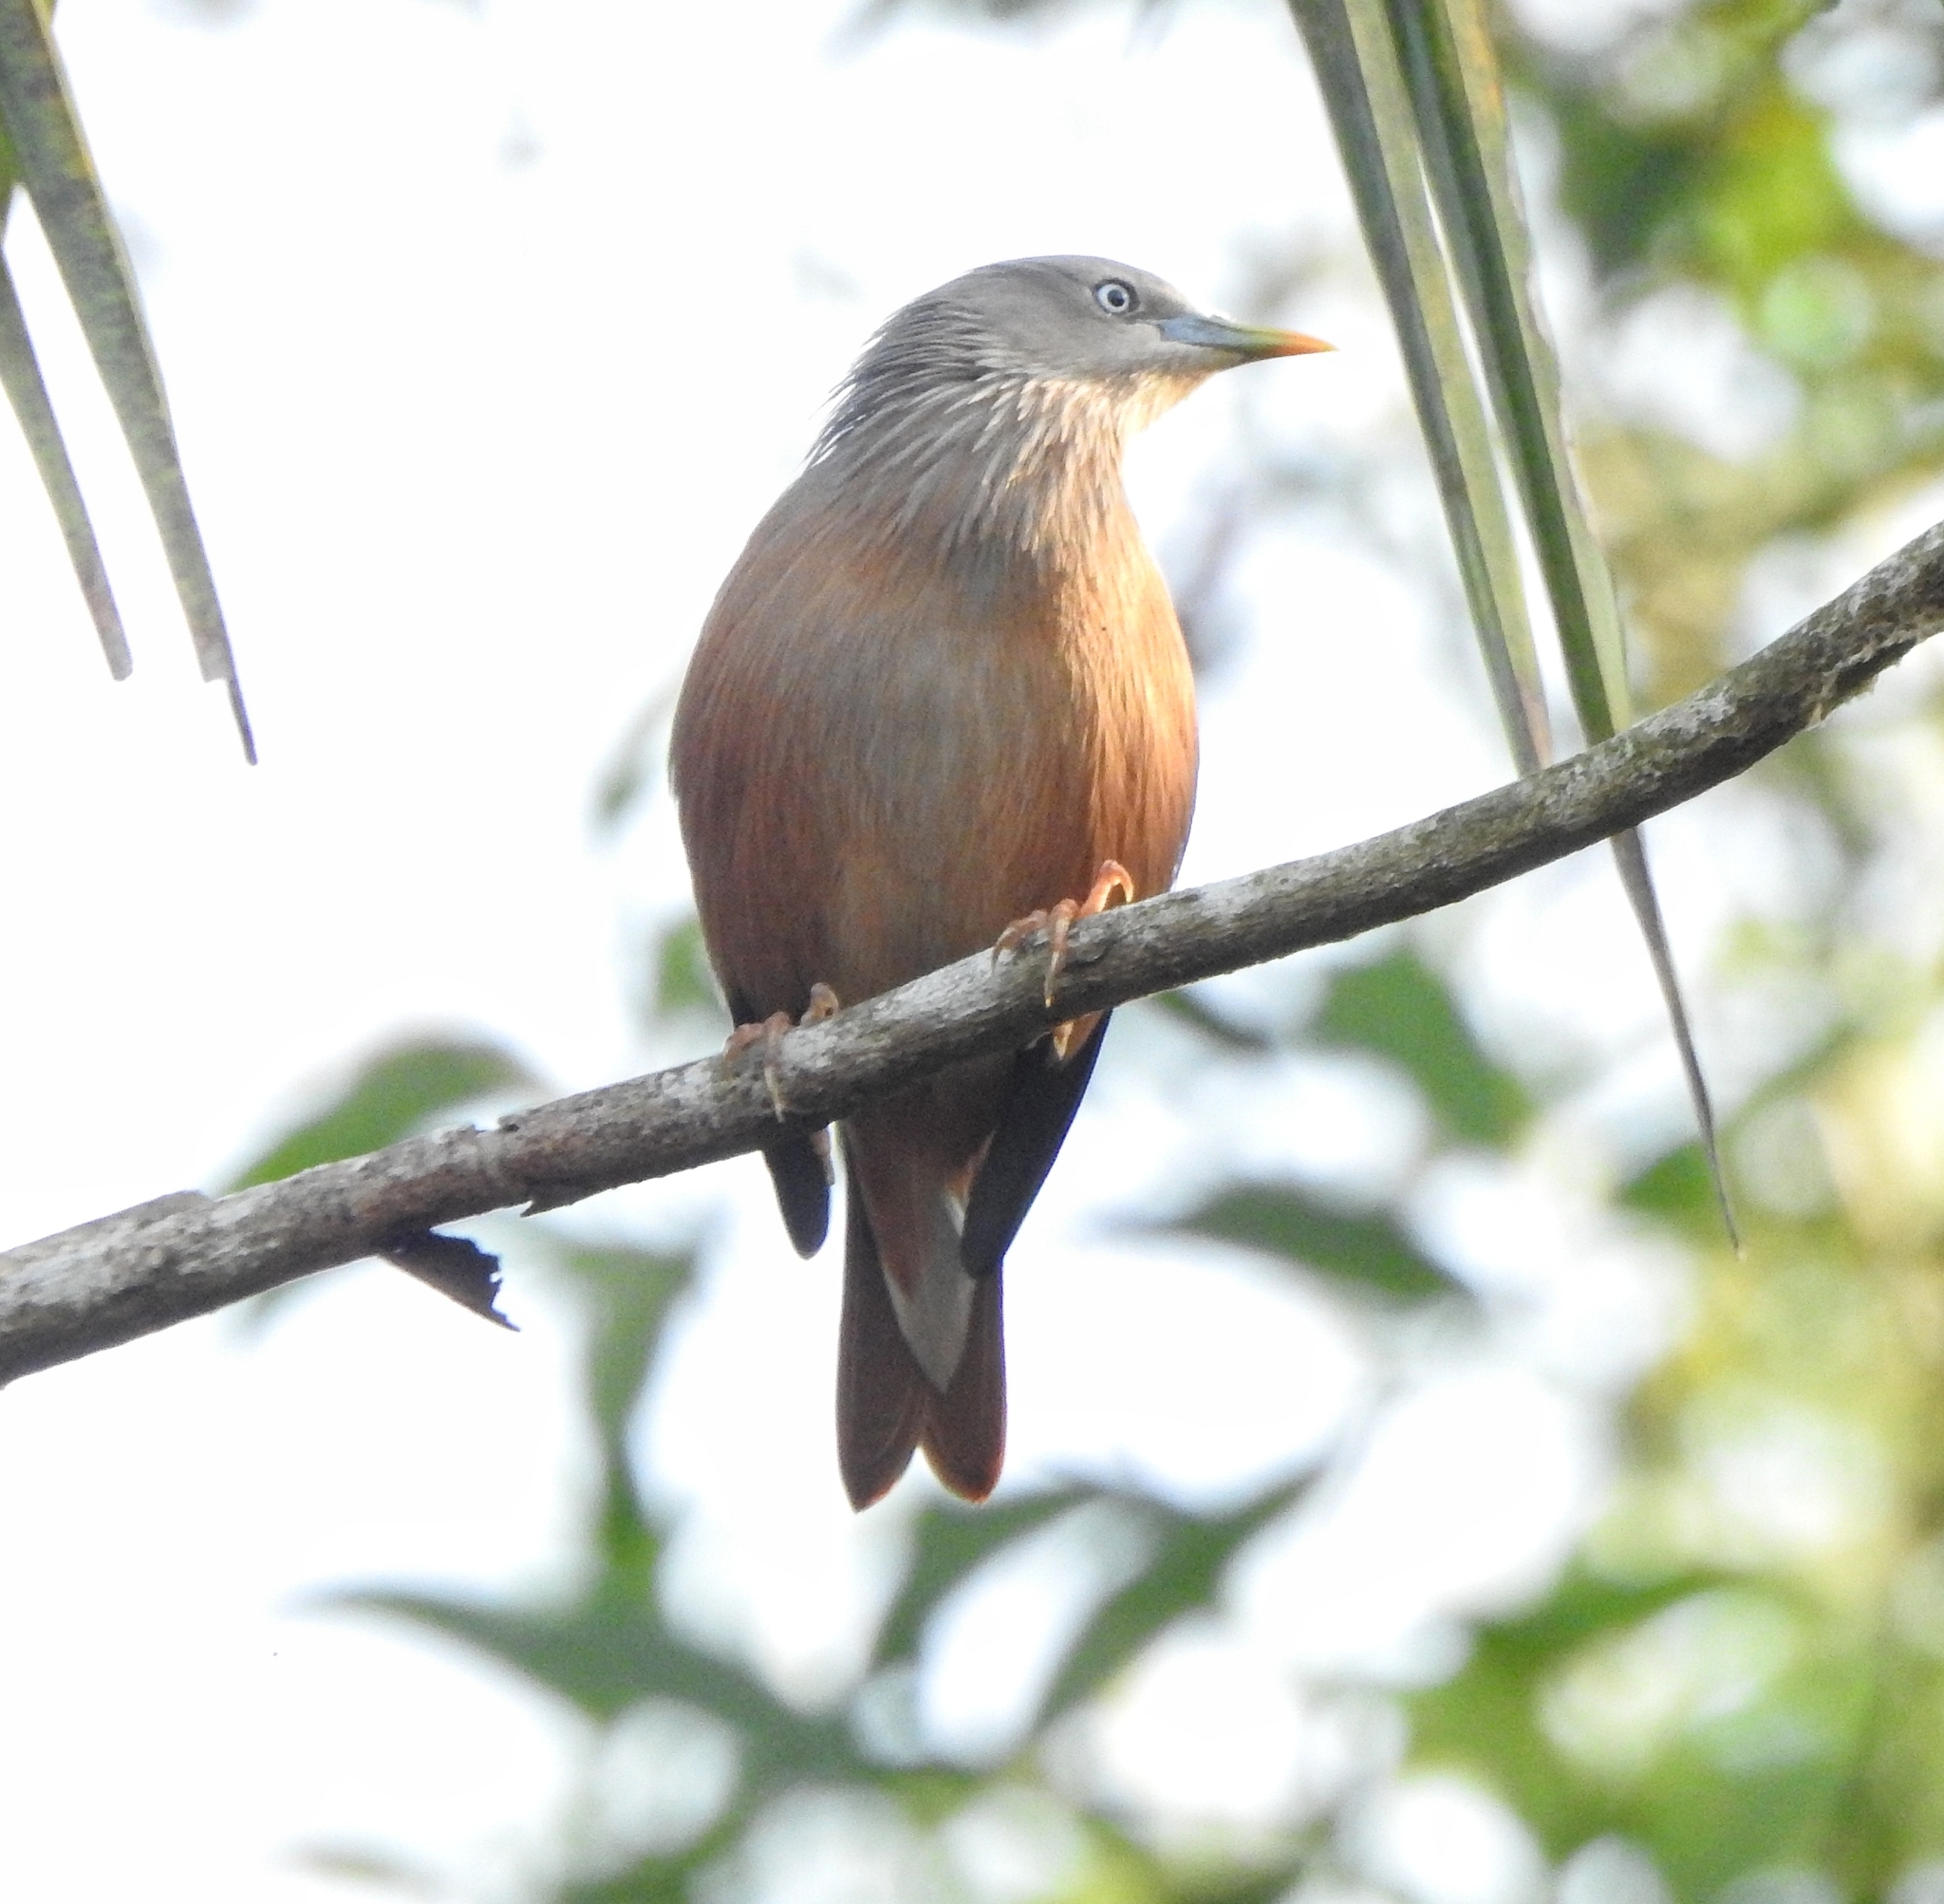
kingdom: Animalia
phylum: Chordata
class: Aves
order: Passeriformes
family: Sturnidae
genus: Sturnia
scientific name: Sturnia malabarica
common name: Chestnut-tailed starling
